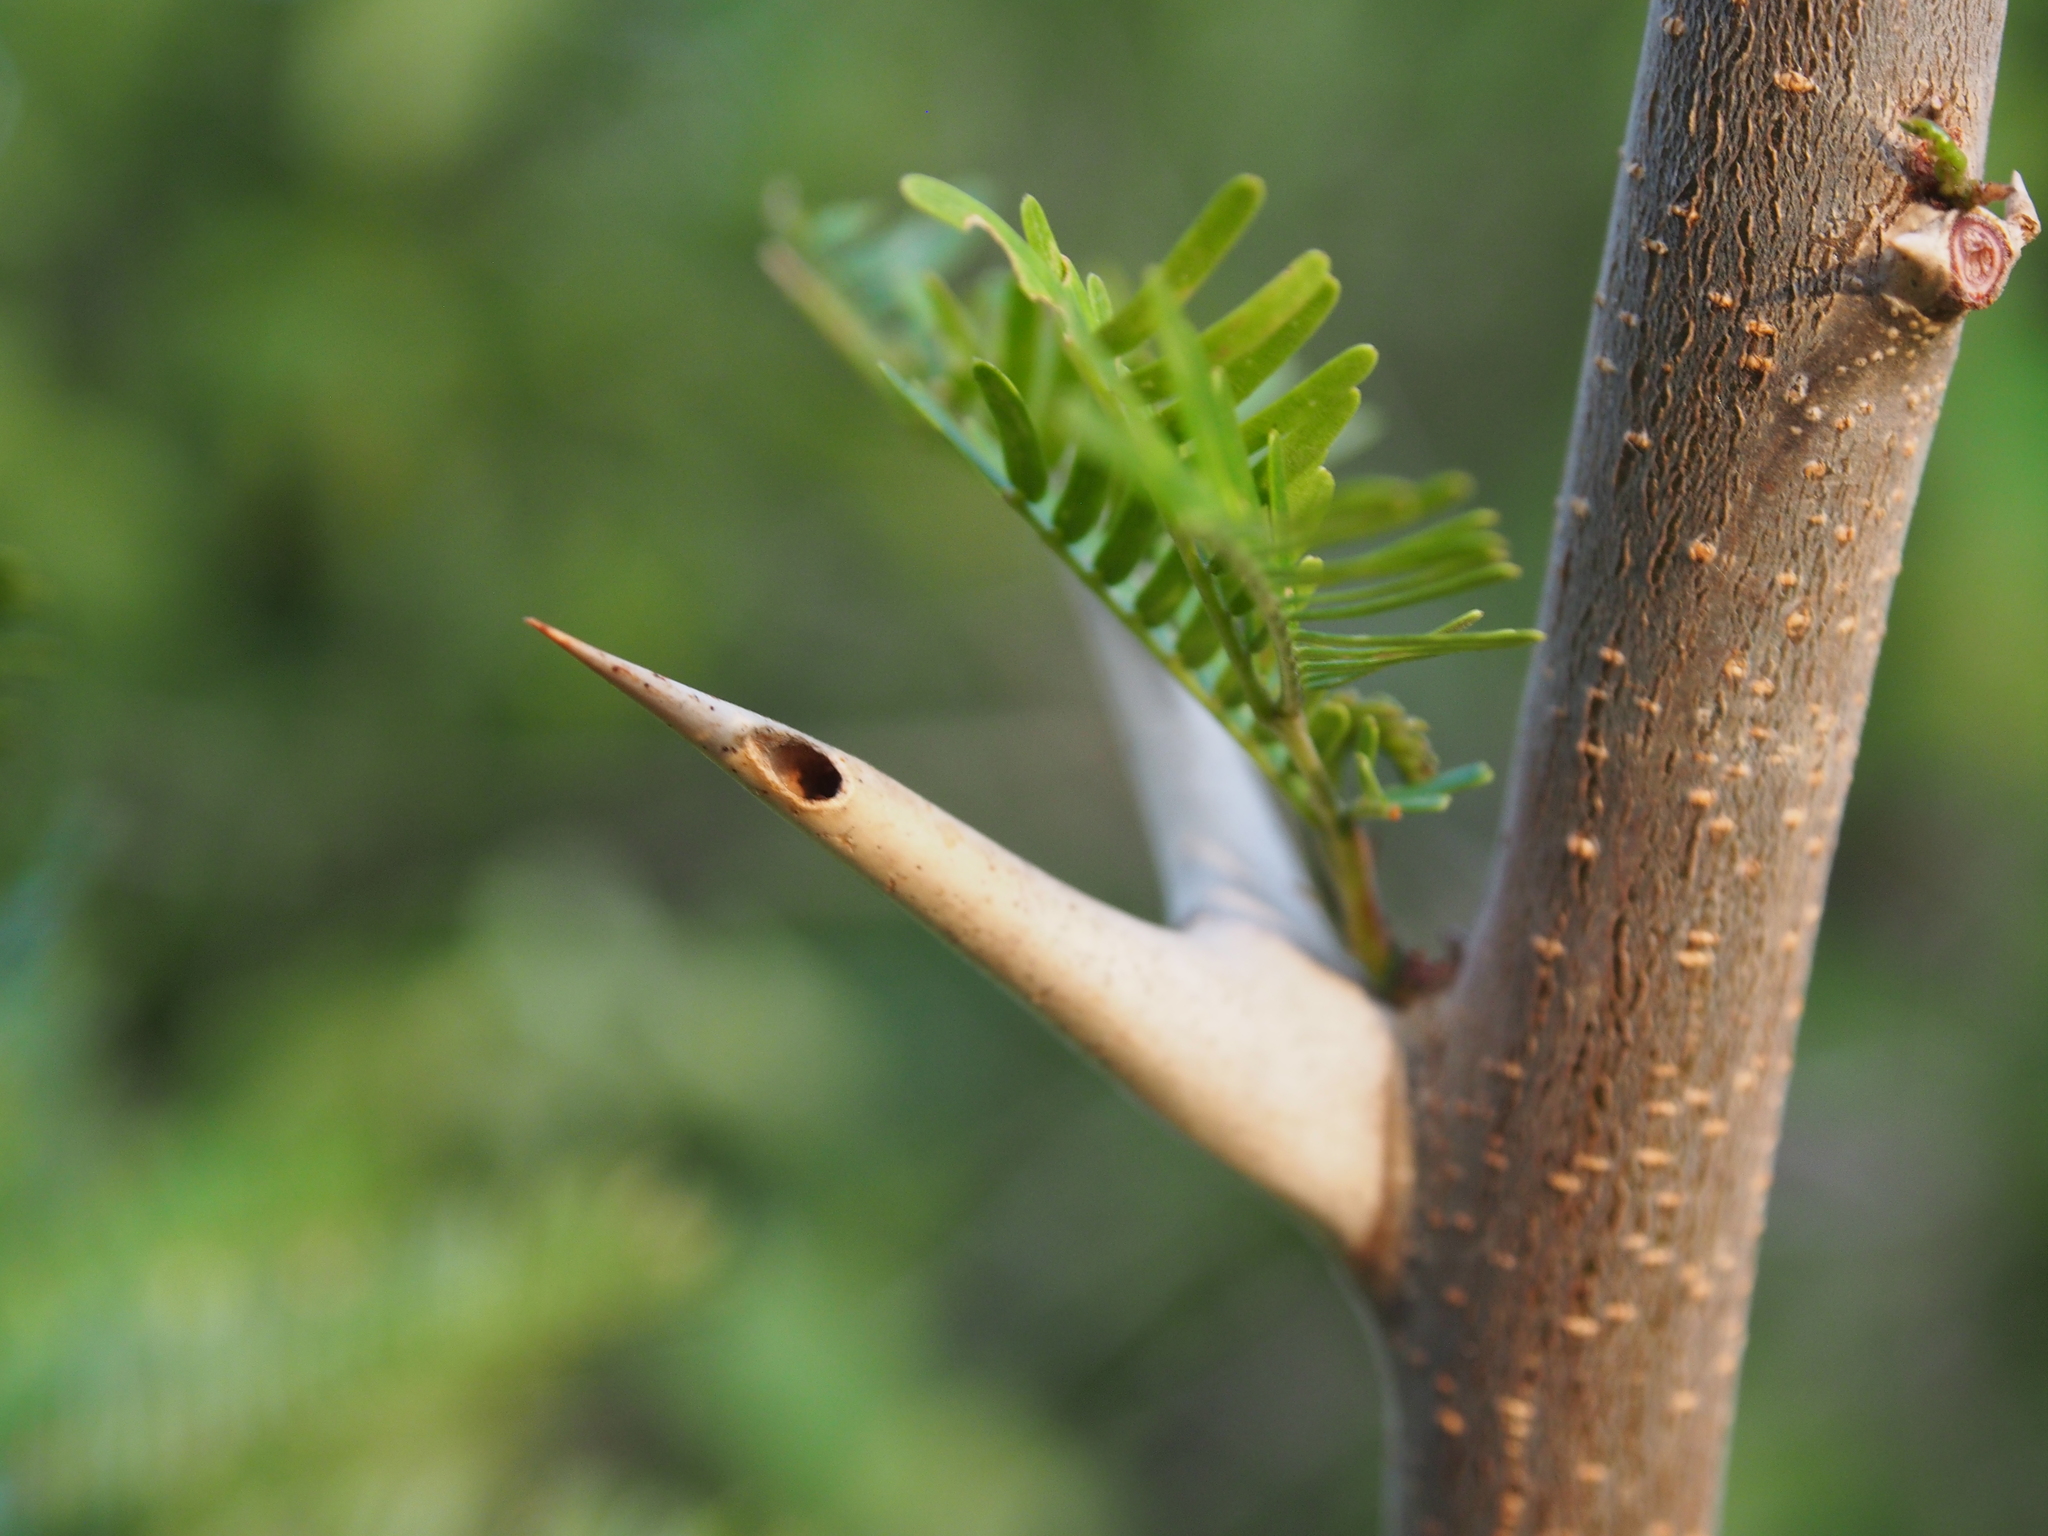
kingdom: Plantae
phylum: Tracheophyta
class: Magnoliopsida
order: Fabales
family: Fabaceae
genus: Vachellia
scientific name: Vachellia collinsii
